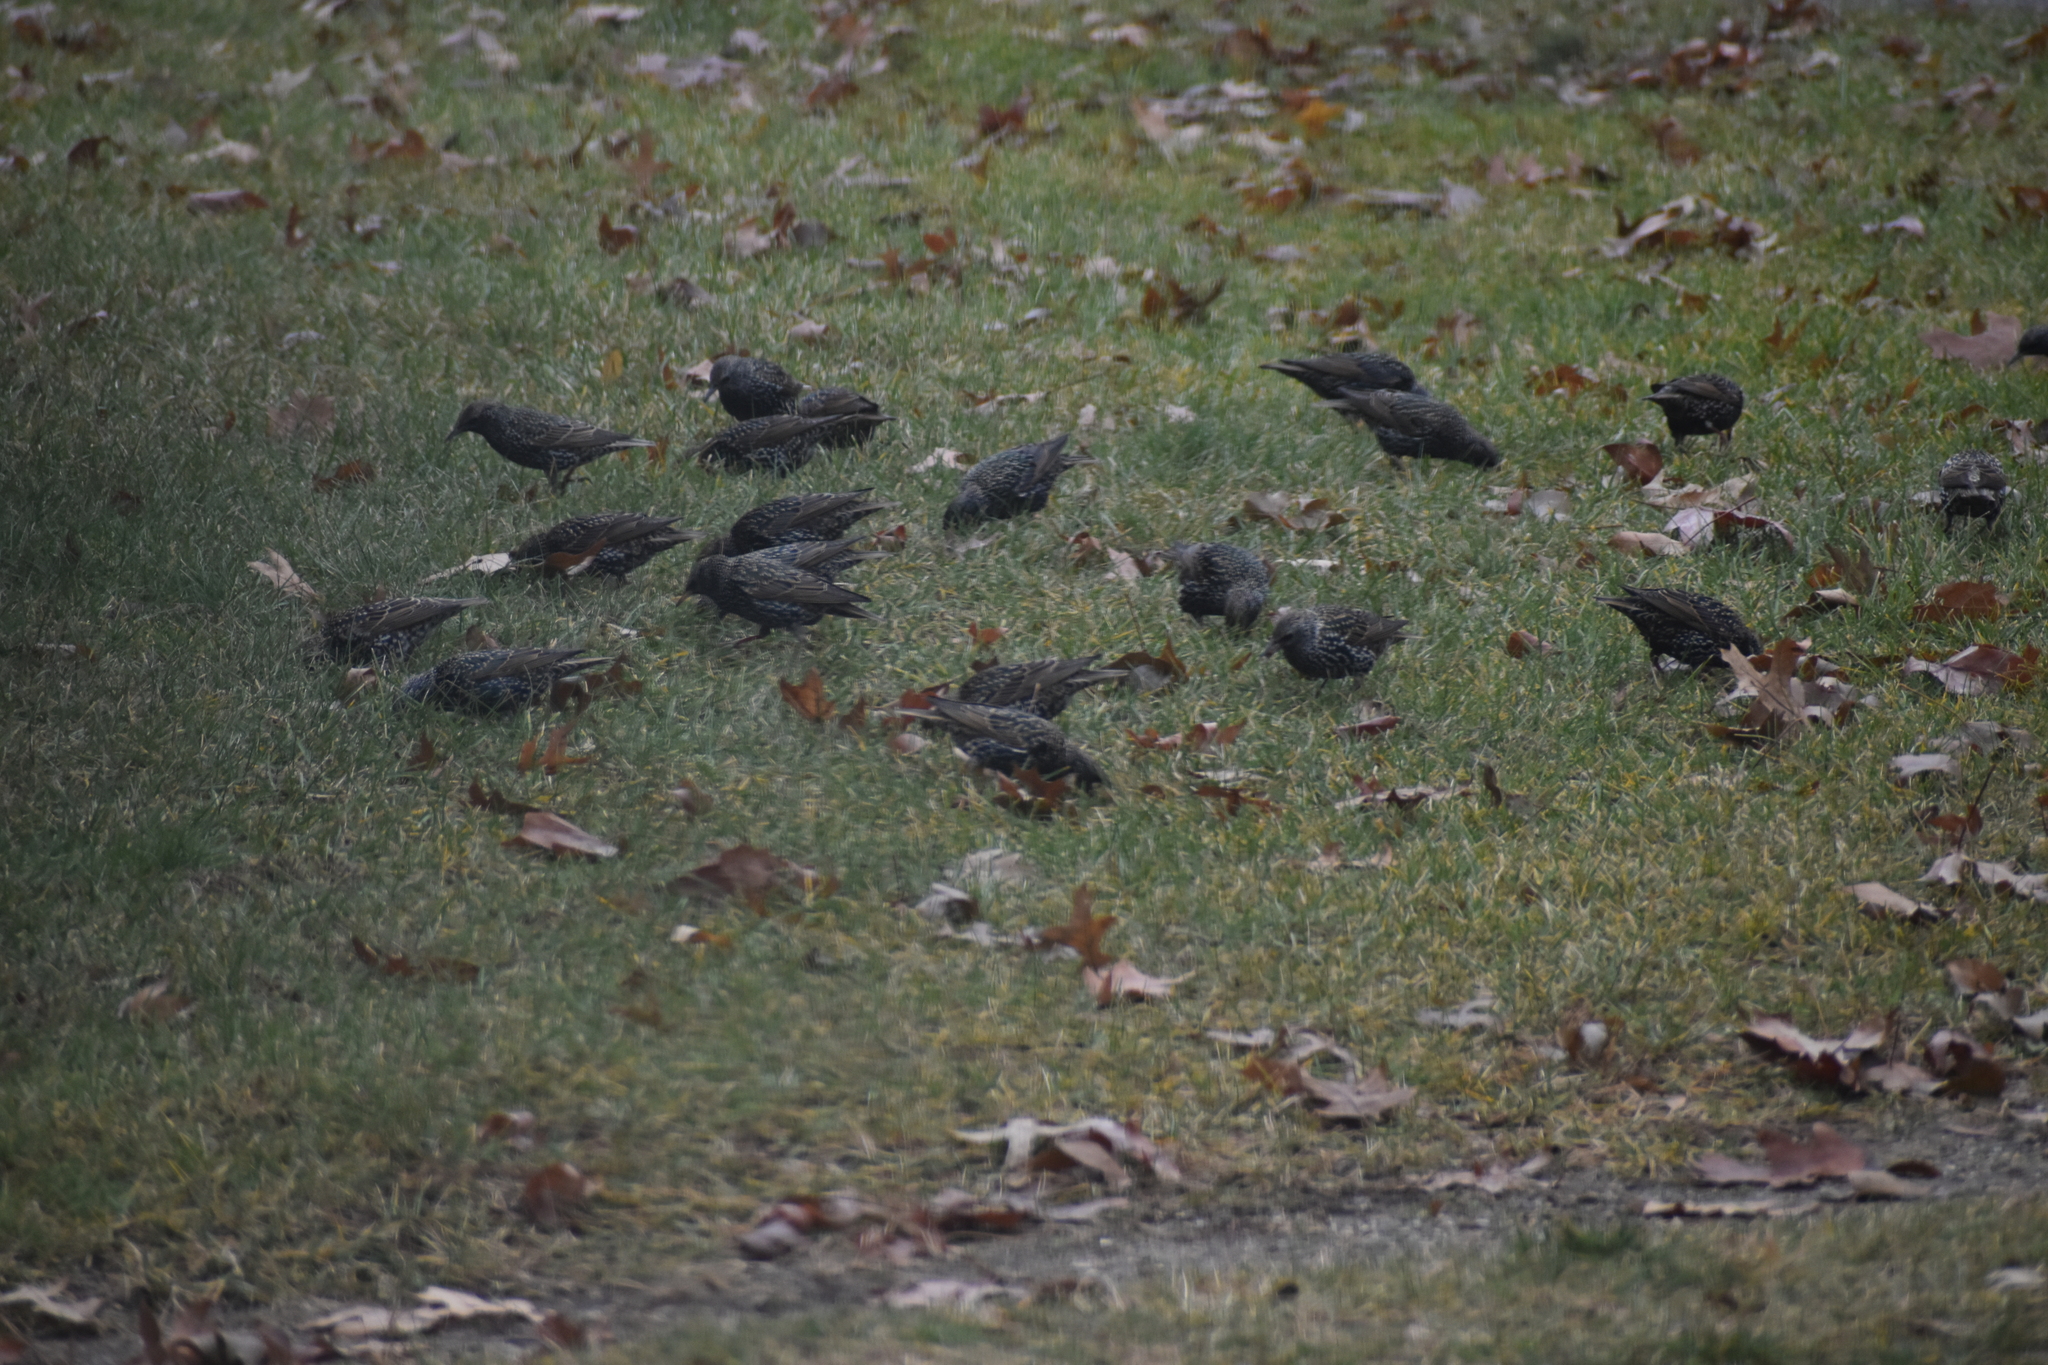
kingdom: Animalia
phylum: Chordata
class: Aves
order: Passeriformes
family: Sturnidae
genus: Sturnus
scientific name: Sturnus vulgaris
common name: Common starling
